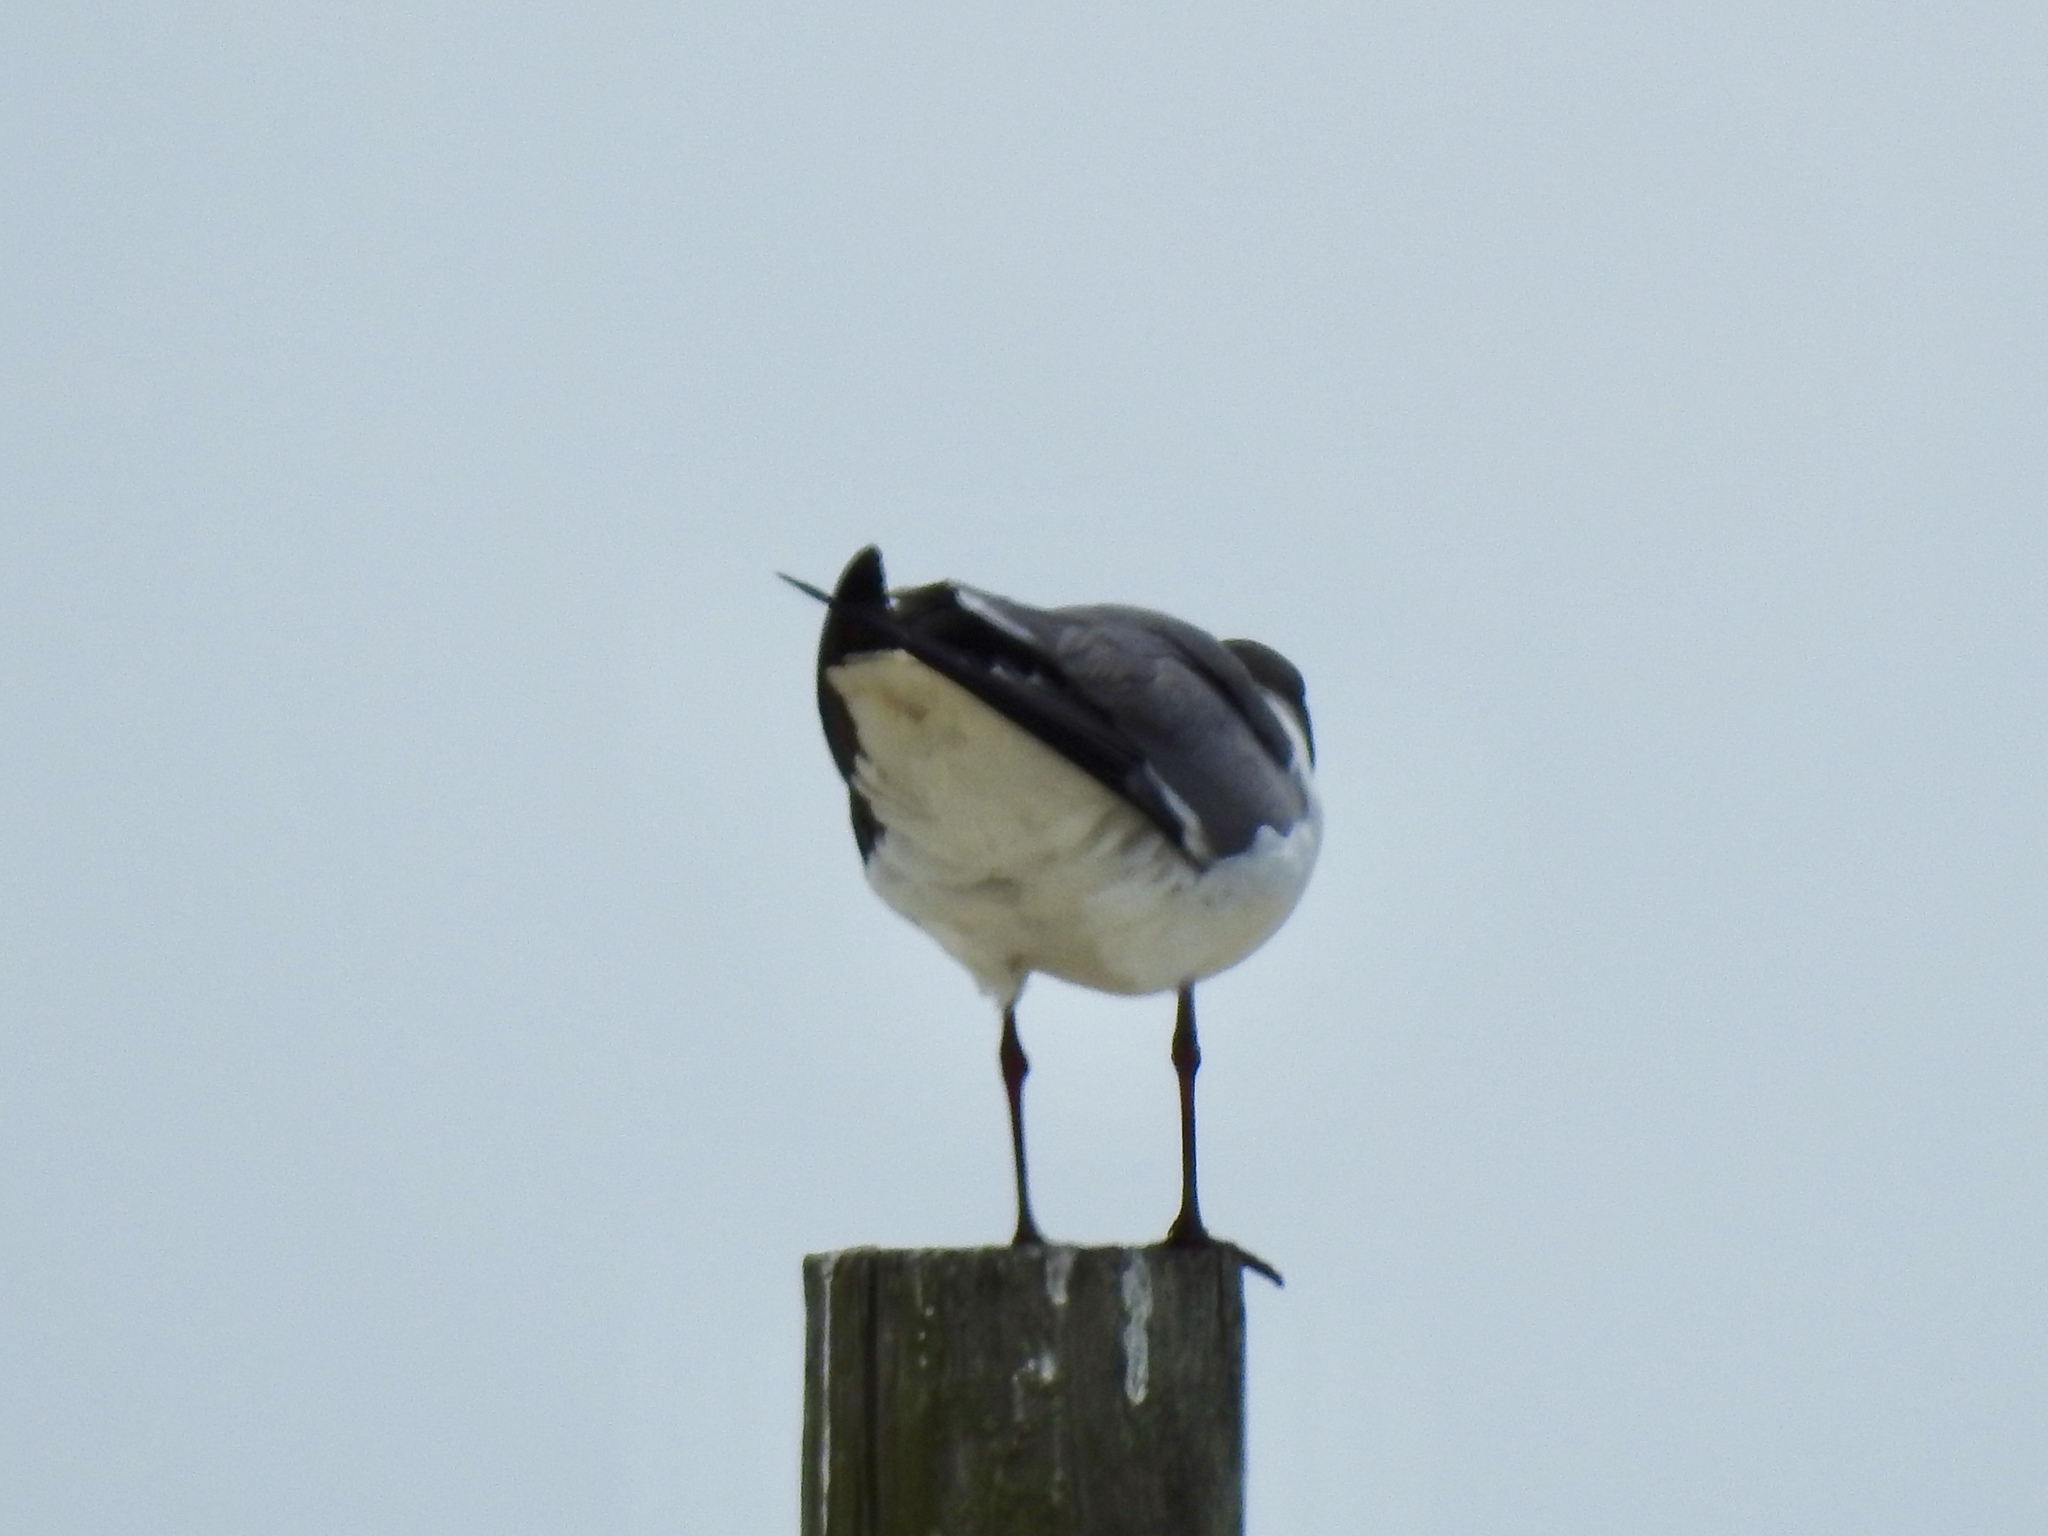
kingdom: Animalia
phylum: Chordata
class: Aves
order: Charadriiformes
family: Laridae
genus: Leucophaeus
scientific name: Leucophaeus atricilla
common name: Laughing gull
